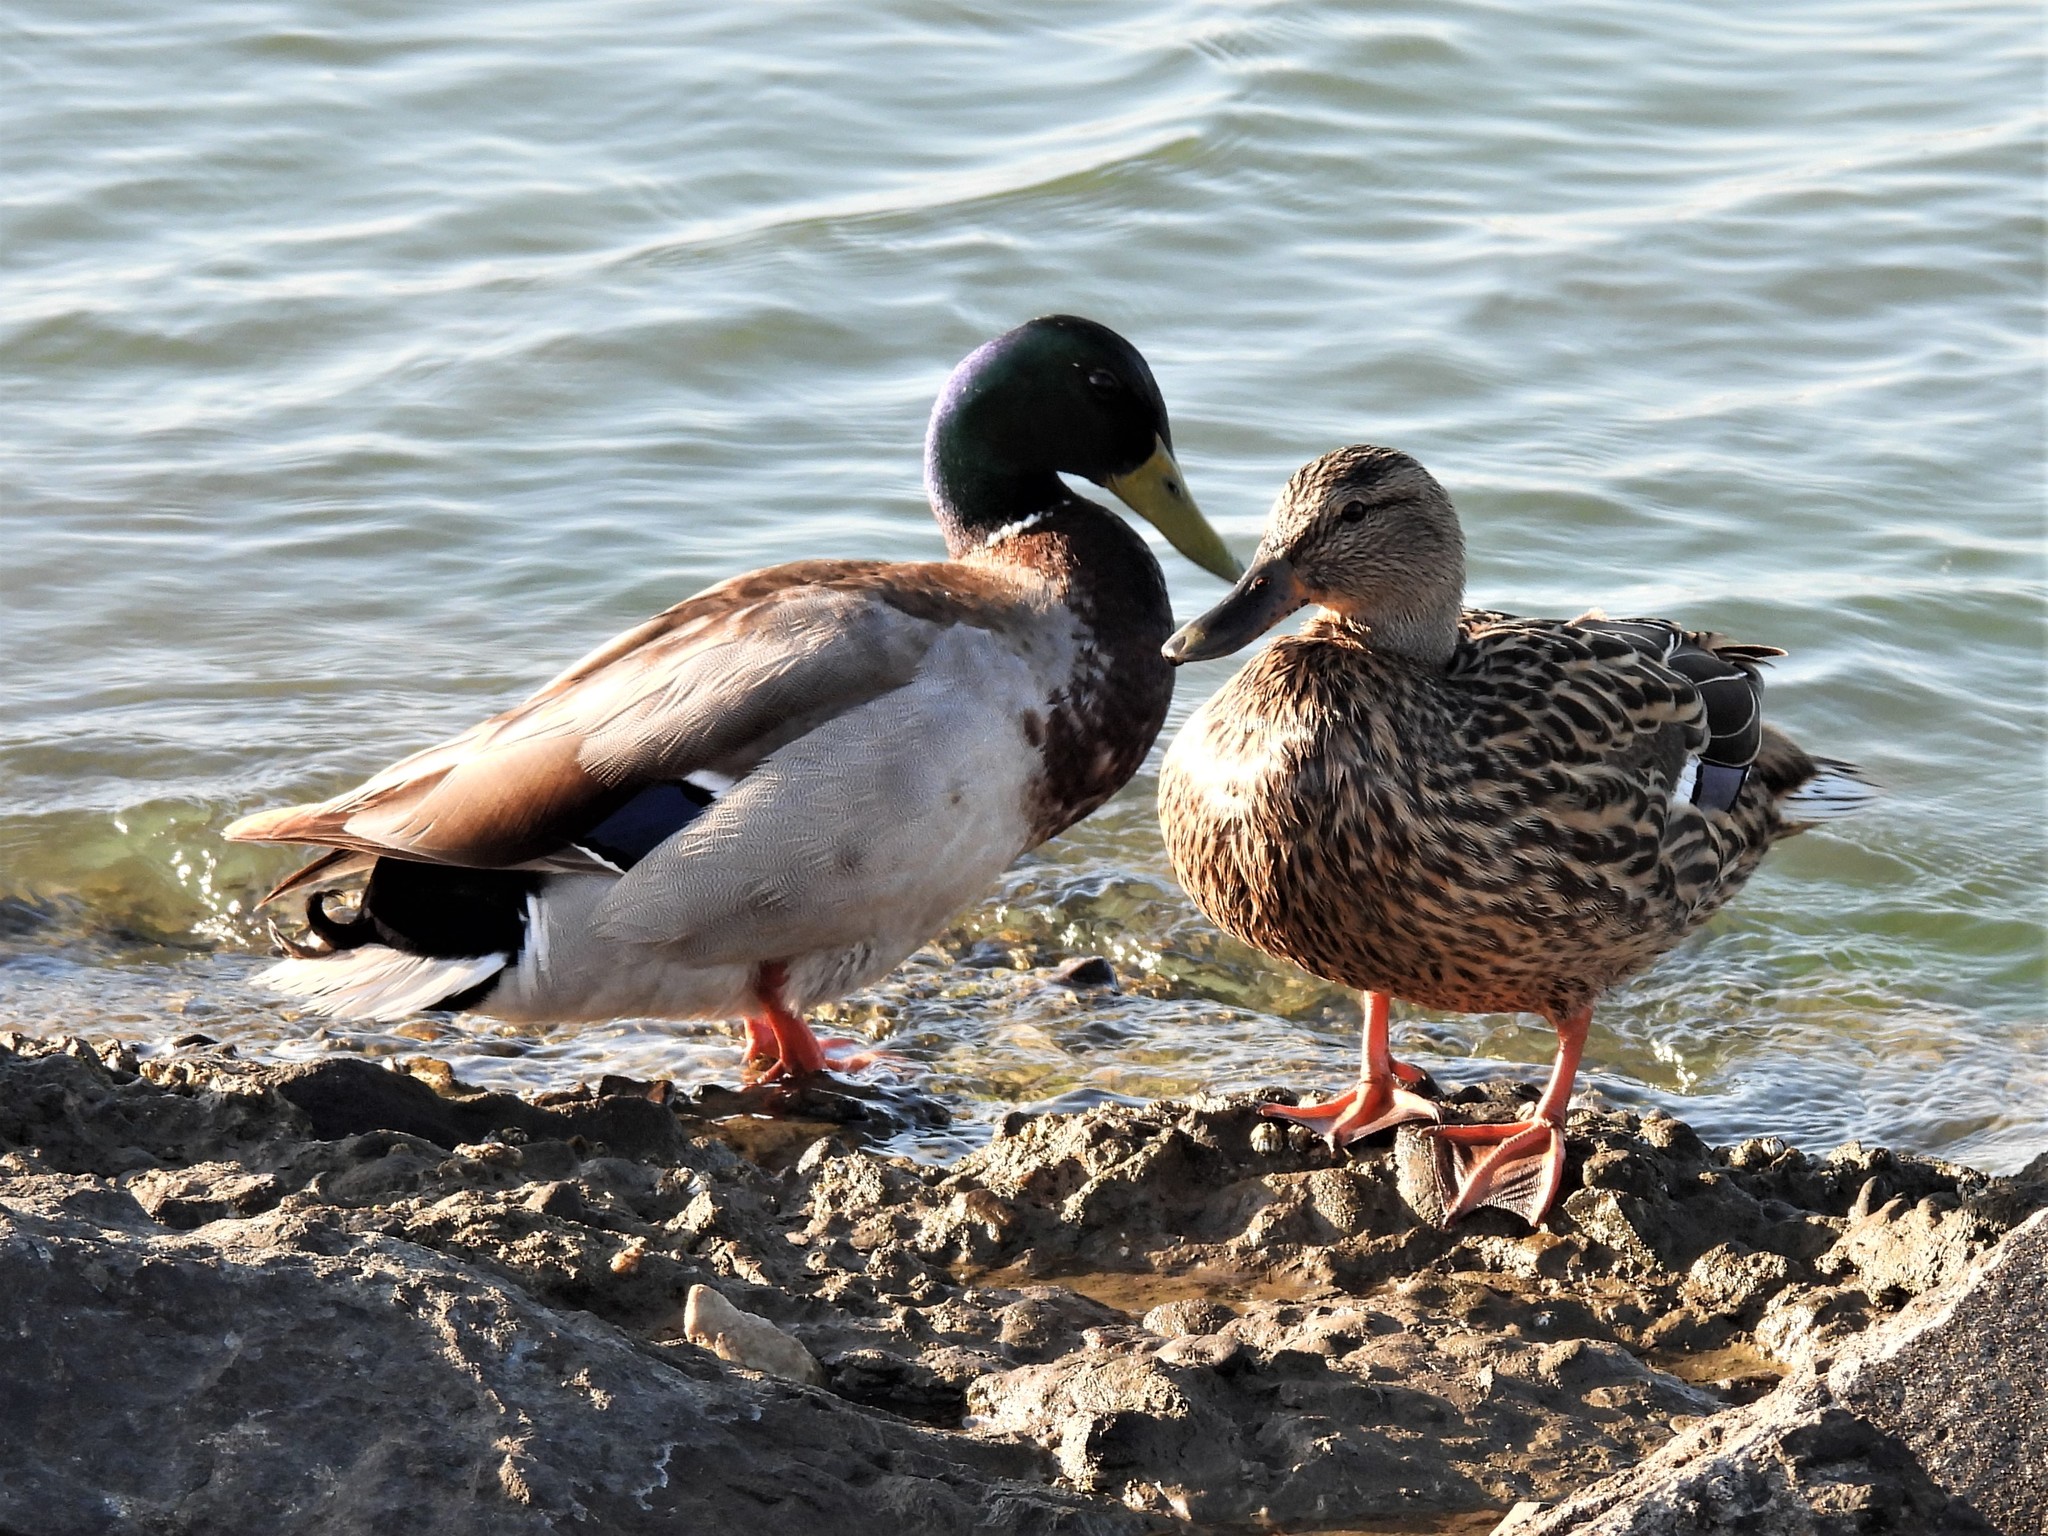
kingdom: Animalia
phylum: Chordata
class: Aves
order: Anseriformes
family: Anatidae
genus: Anas
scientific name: Anas platyrhynchos
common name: Mallard
